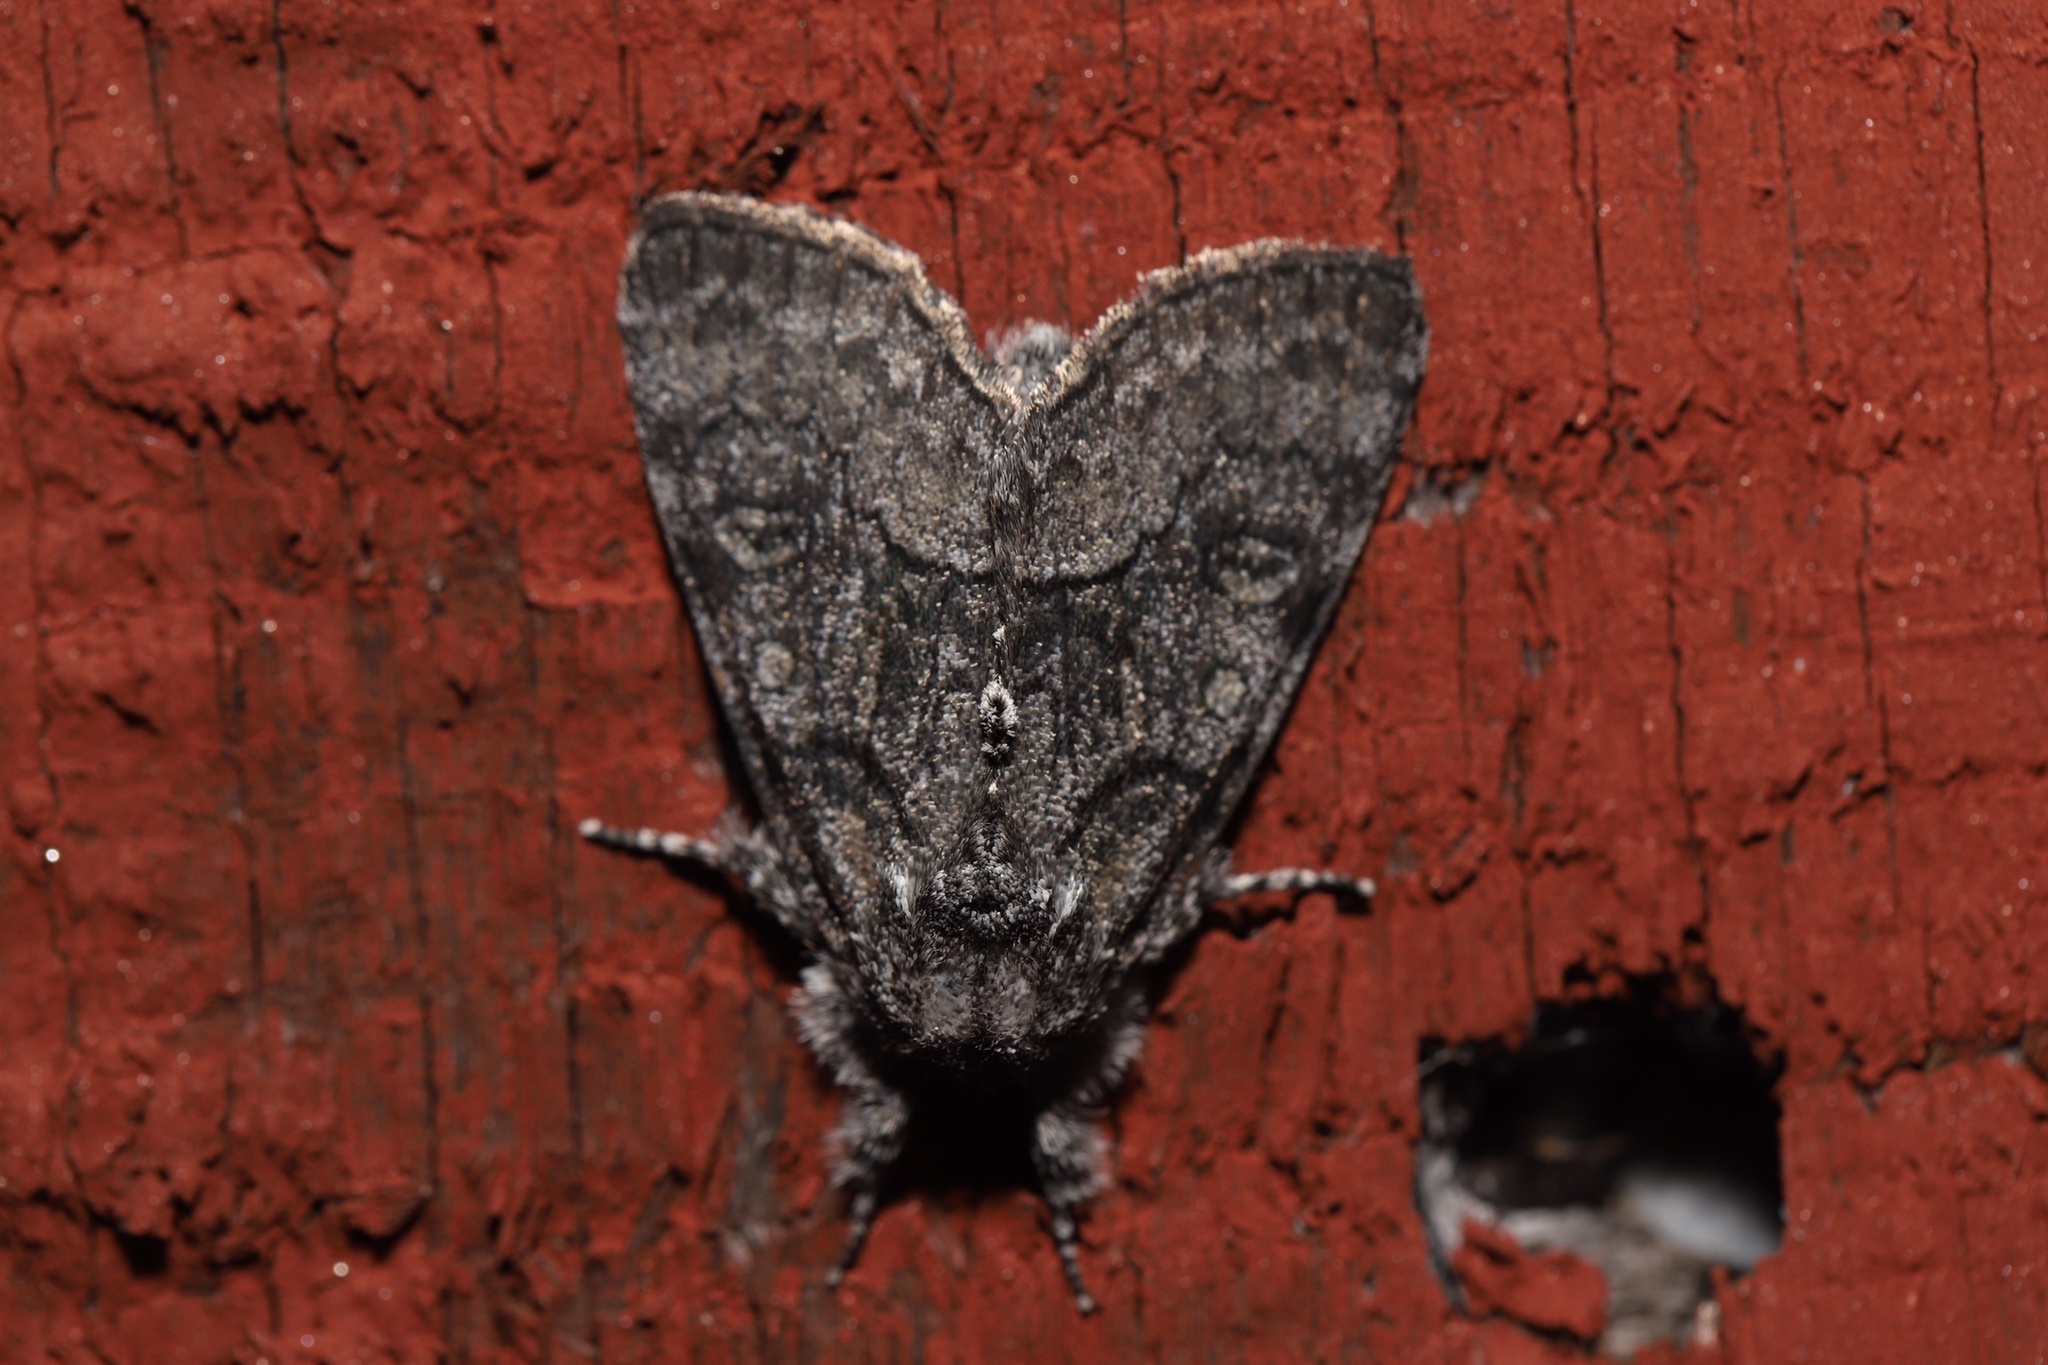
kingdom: Animalia
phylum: Arthropoda
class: Insecta
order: Lepidoptera
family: Noctuidae
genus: Raphia
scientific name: Raphia frater
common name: Brother
